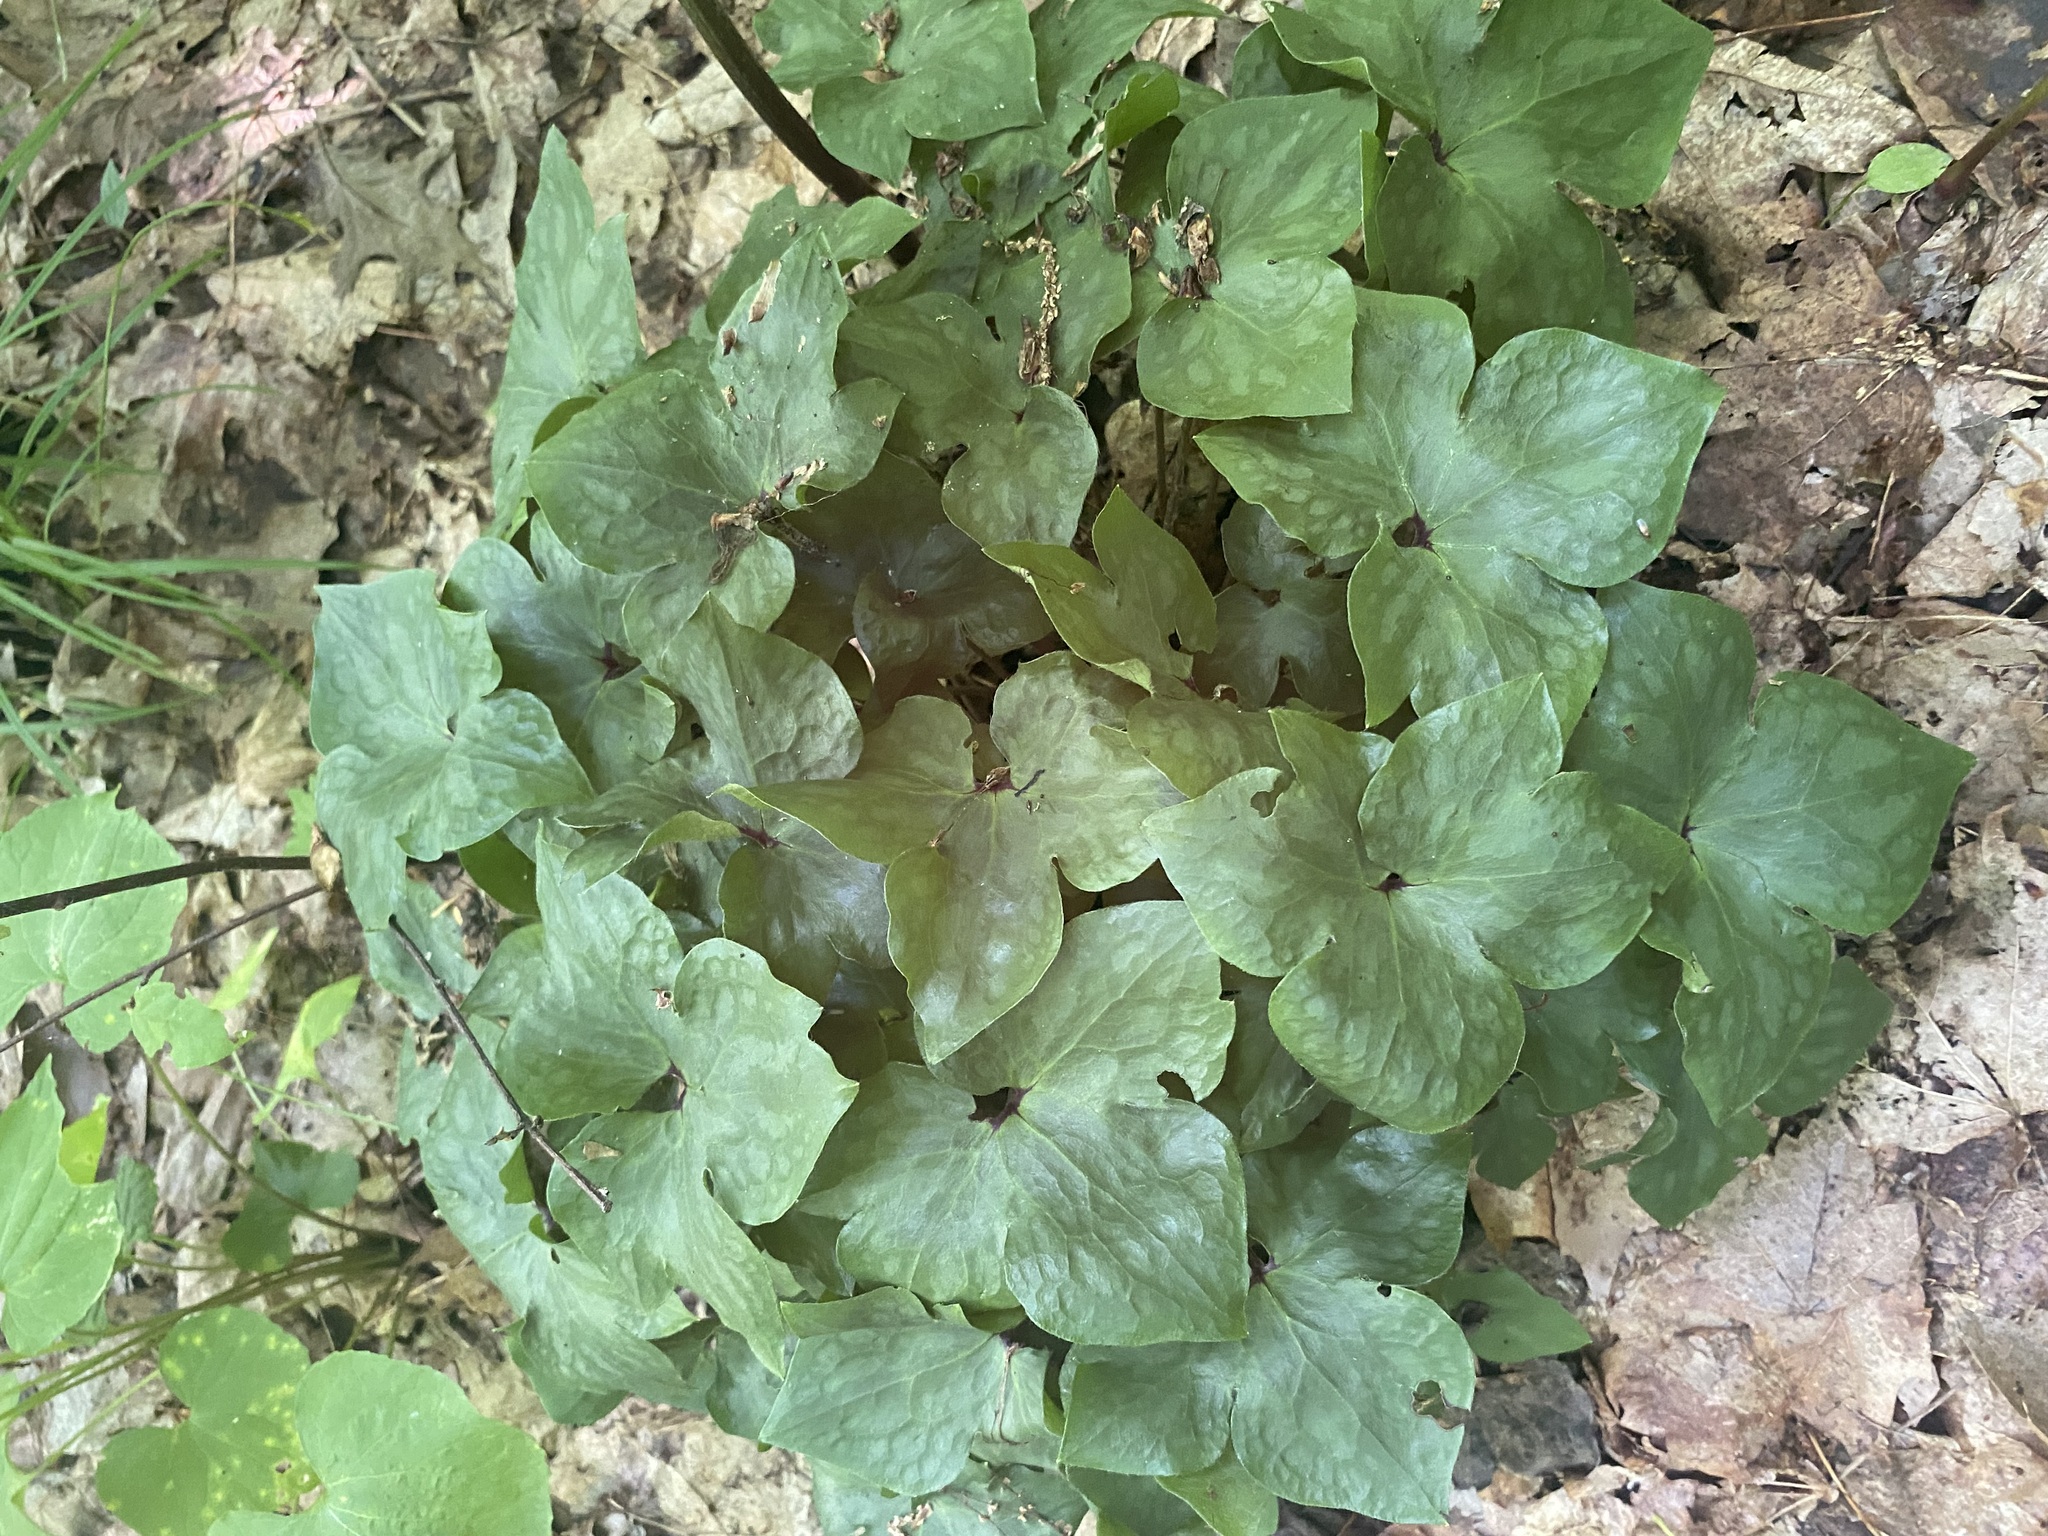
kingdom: Plantae
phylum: Tracheophyta
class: Magnoliopsida
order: Ranunculales
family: Ranunculaceae
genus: Hepatica
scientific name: Hepatica acutiloba
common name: Sharp-lobed hepatica
